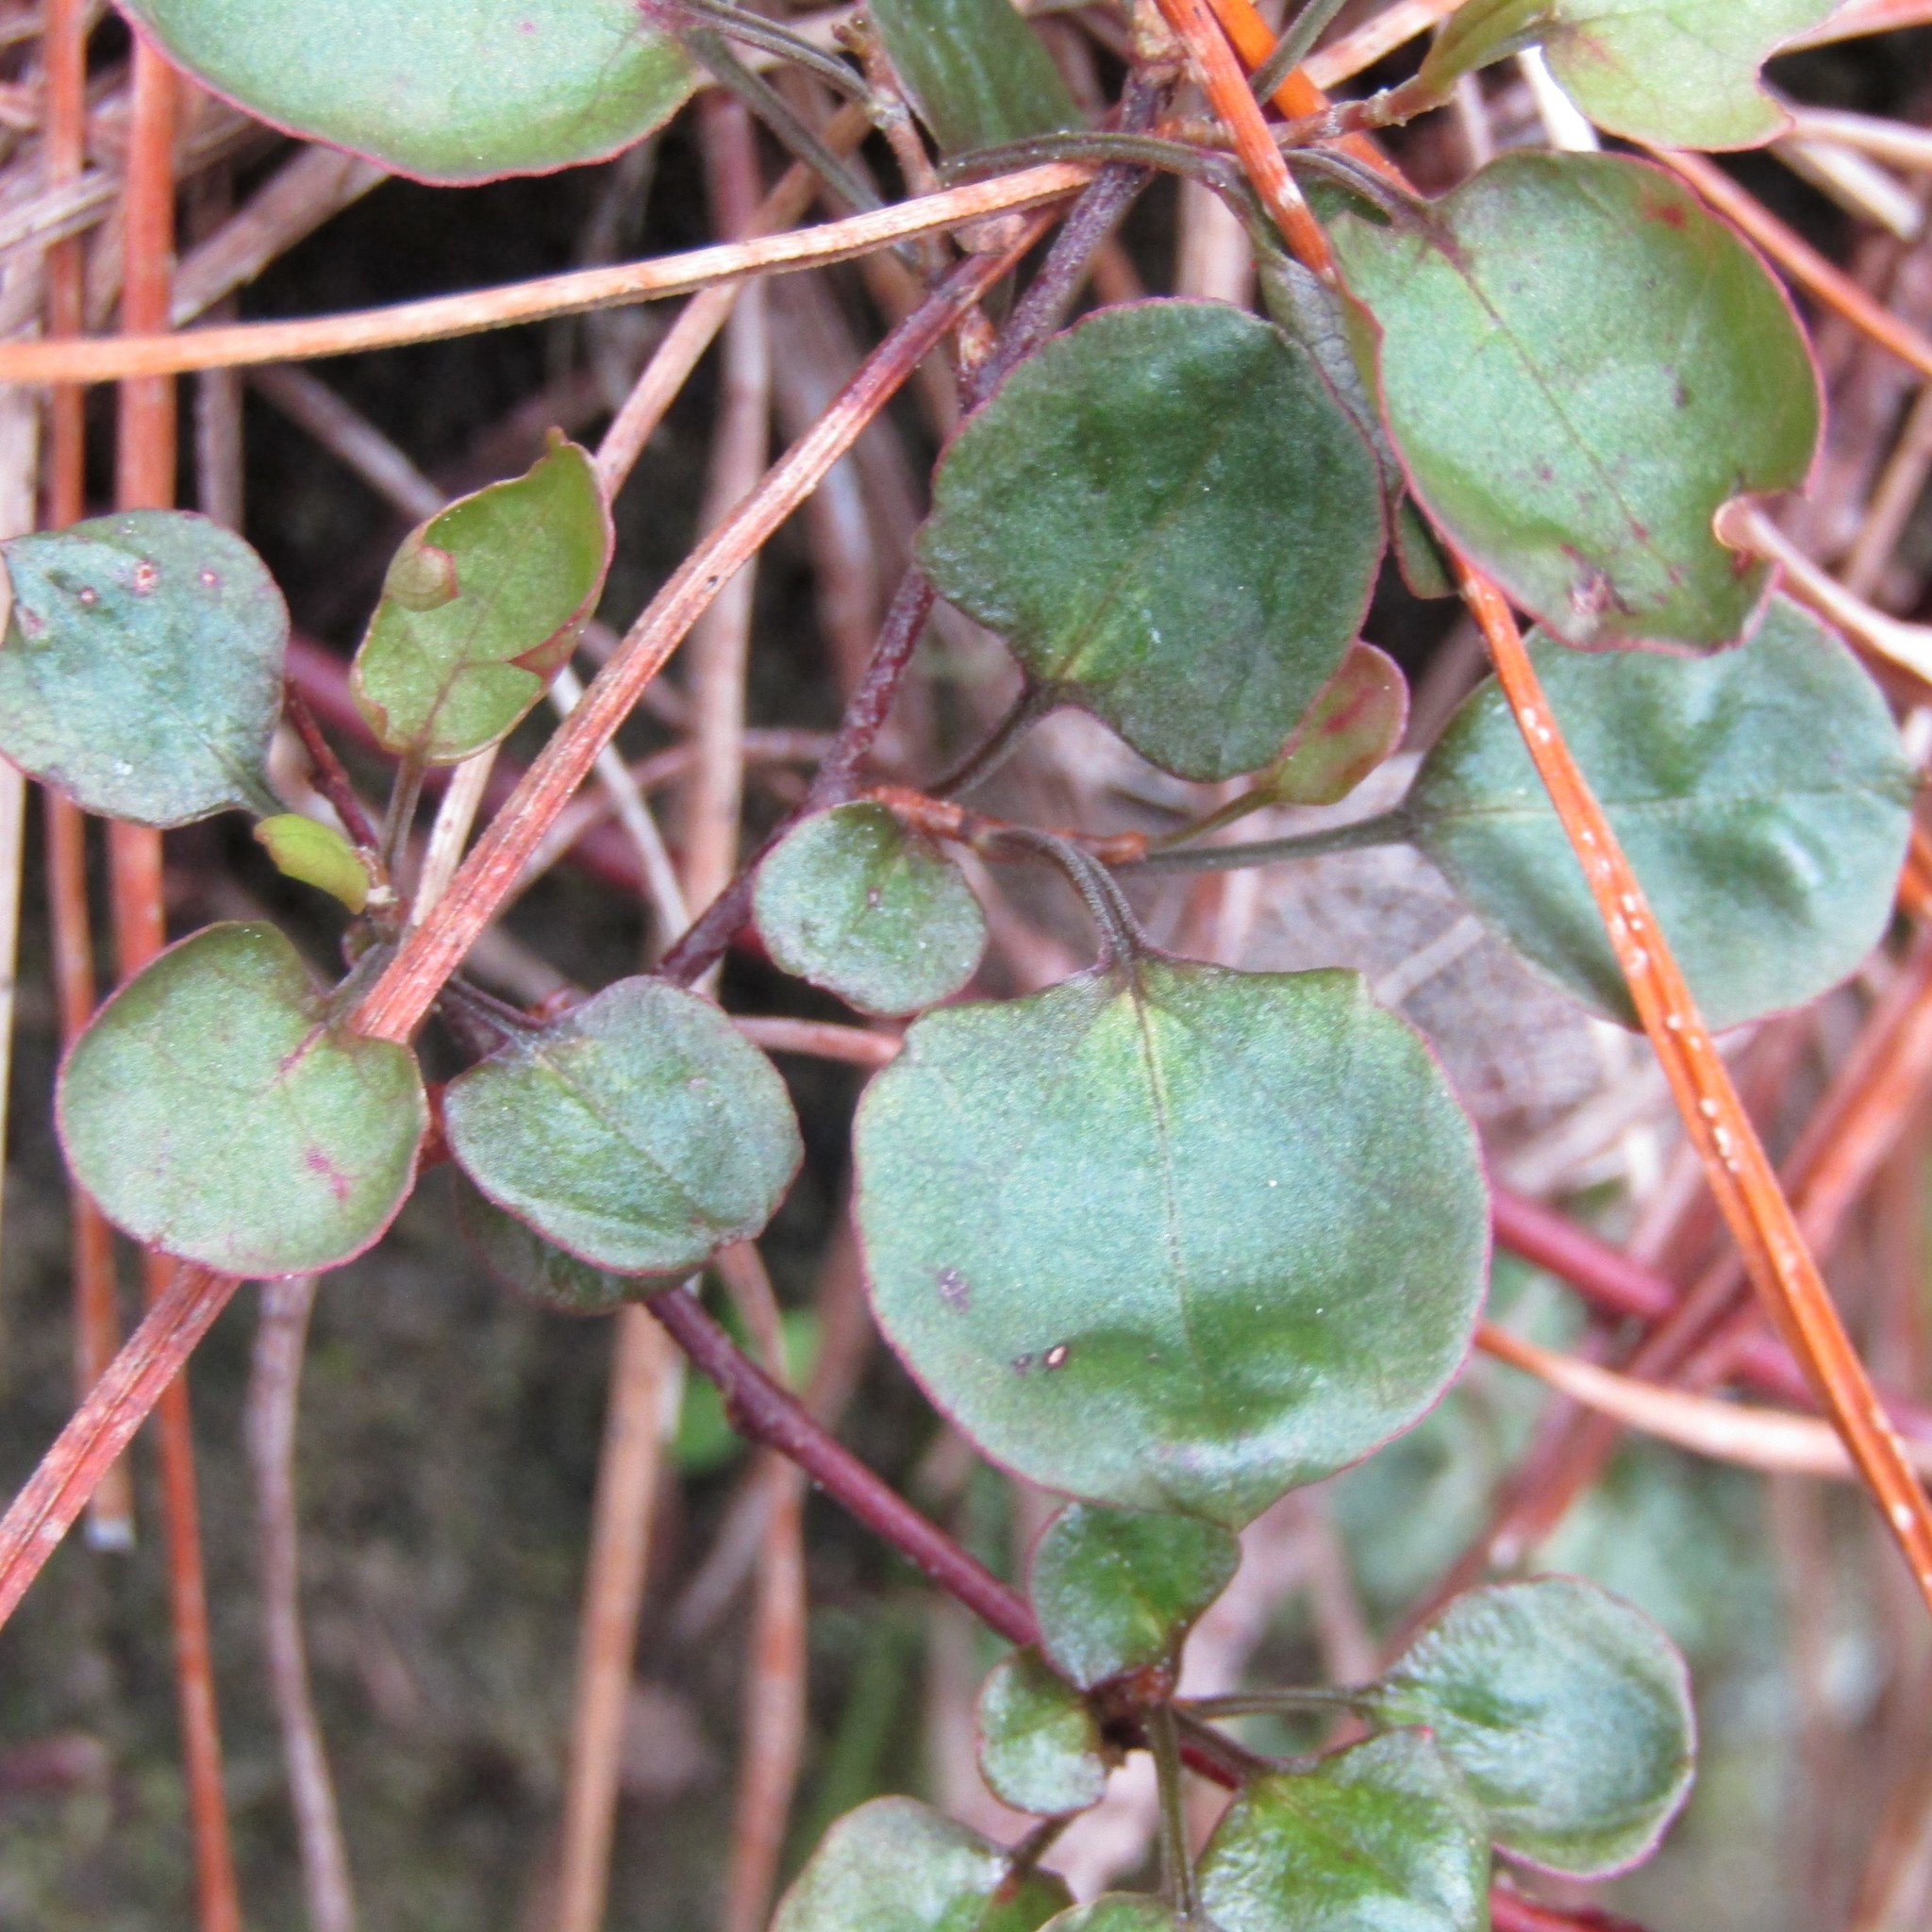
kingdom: Plantae
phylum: Tracheophyta
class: Magnoliopsida
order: Caryophyllales
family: Polygonaceae
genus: Muehlenbeckia
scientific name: Muehlenbeckia complexa
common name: Wireplant
